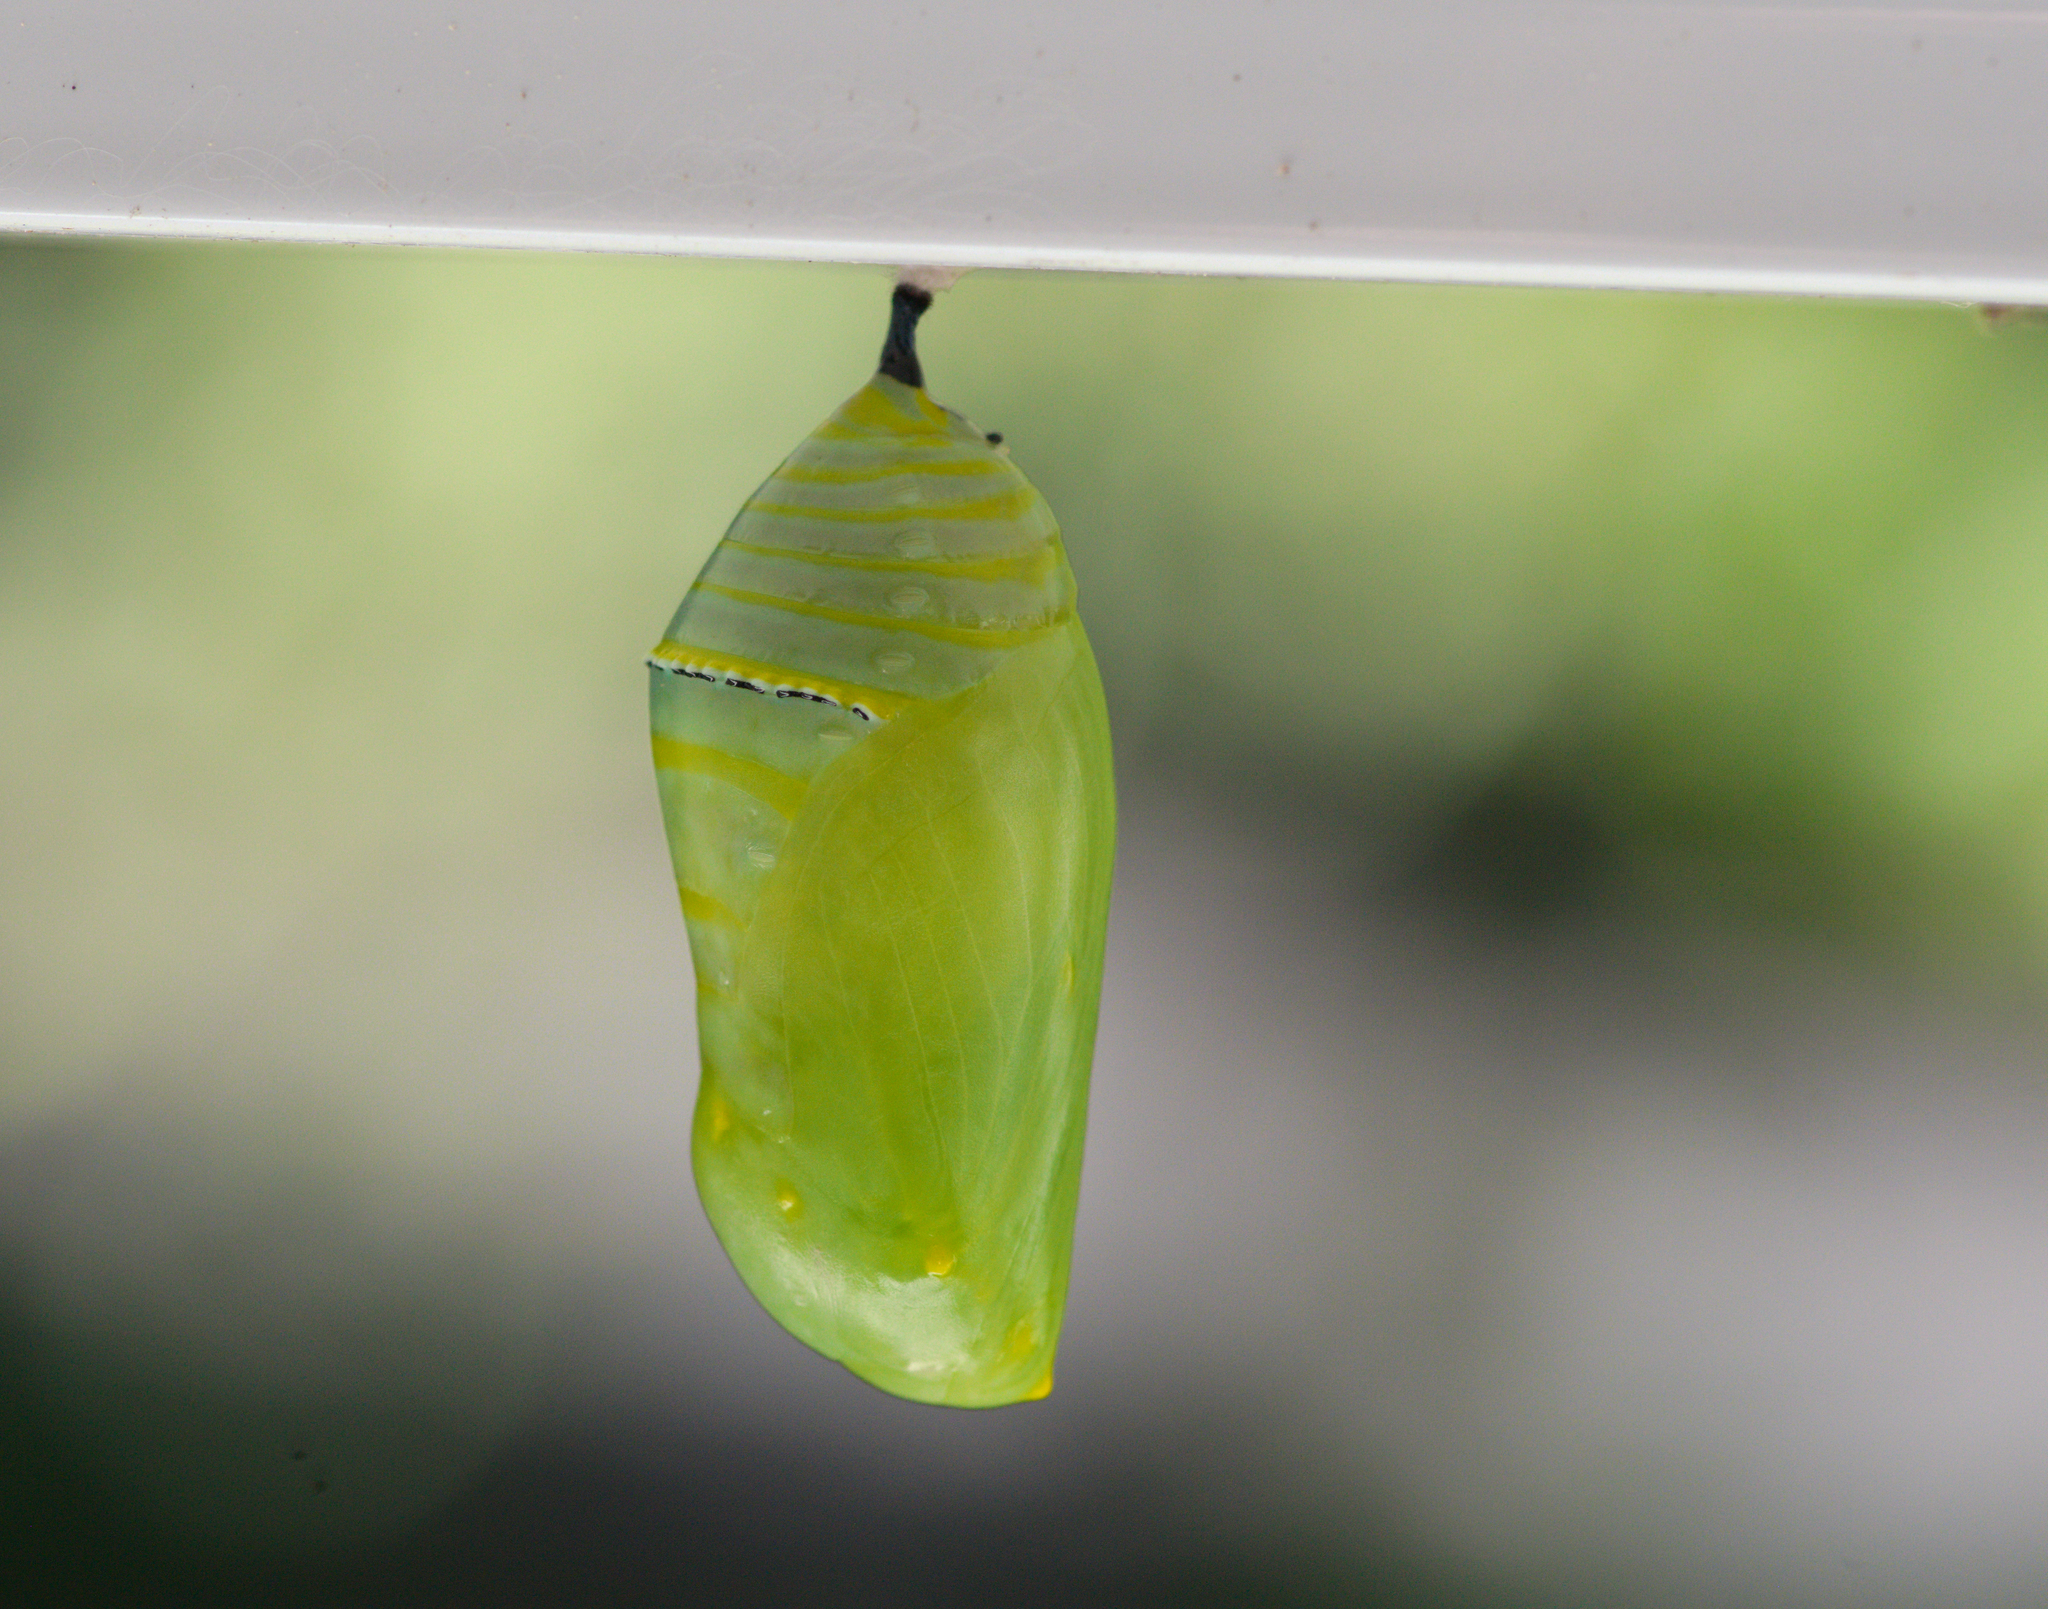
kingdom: Animalia
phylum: Arthropoda
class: Insecta
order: Lepidoptera
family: Nymphalidae
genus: Danaus
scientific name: Danaus plexippus
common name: Monarch
